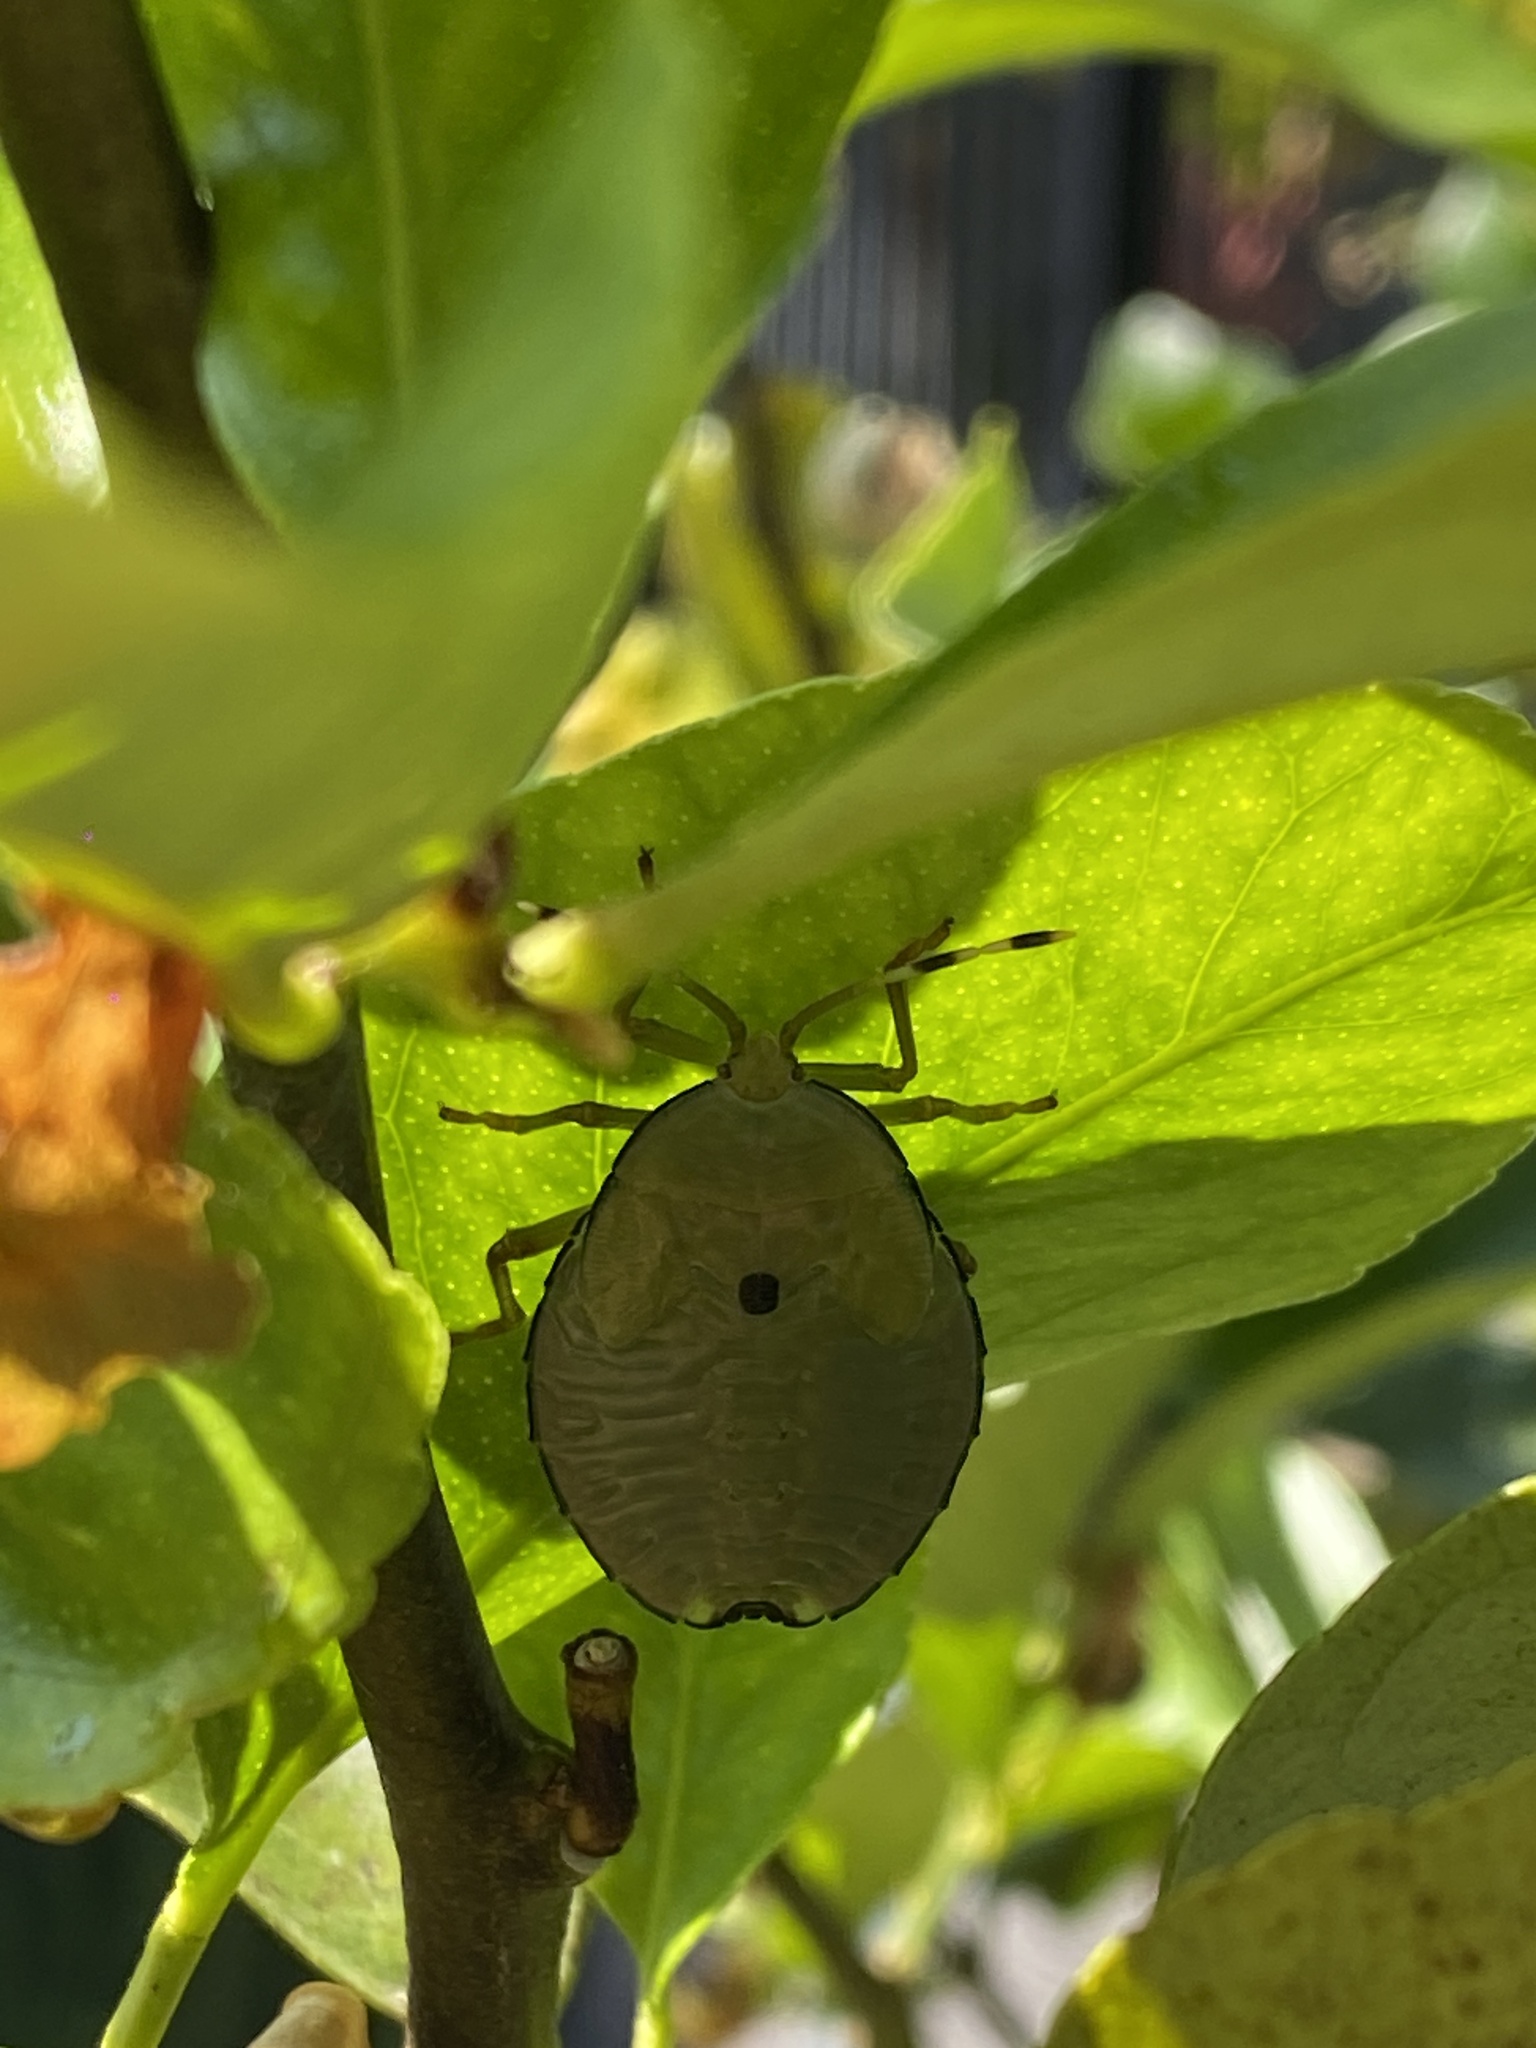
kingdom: Animalia
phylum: Arthropoda
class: Insecta
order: Hemiptera
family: Tessaratomidae
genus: Musgraveia
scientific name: Musgraveia sulciventris
